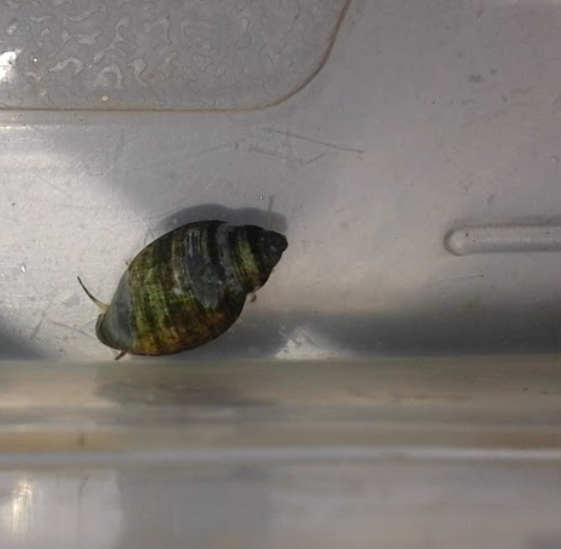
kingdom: Animalia
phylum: Mollusca
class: Gastropoda
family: Physidae
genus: Physella
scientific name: Physella acuta
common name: European physa
